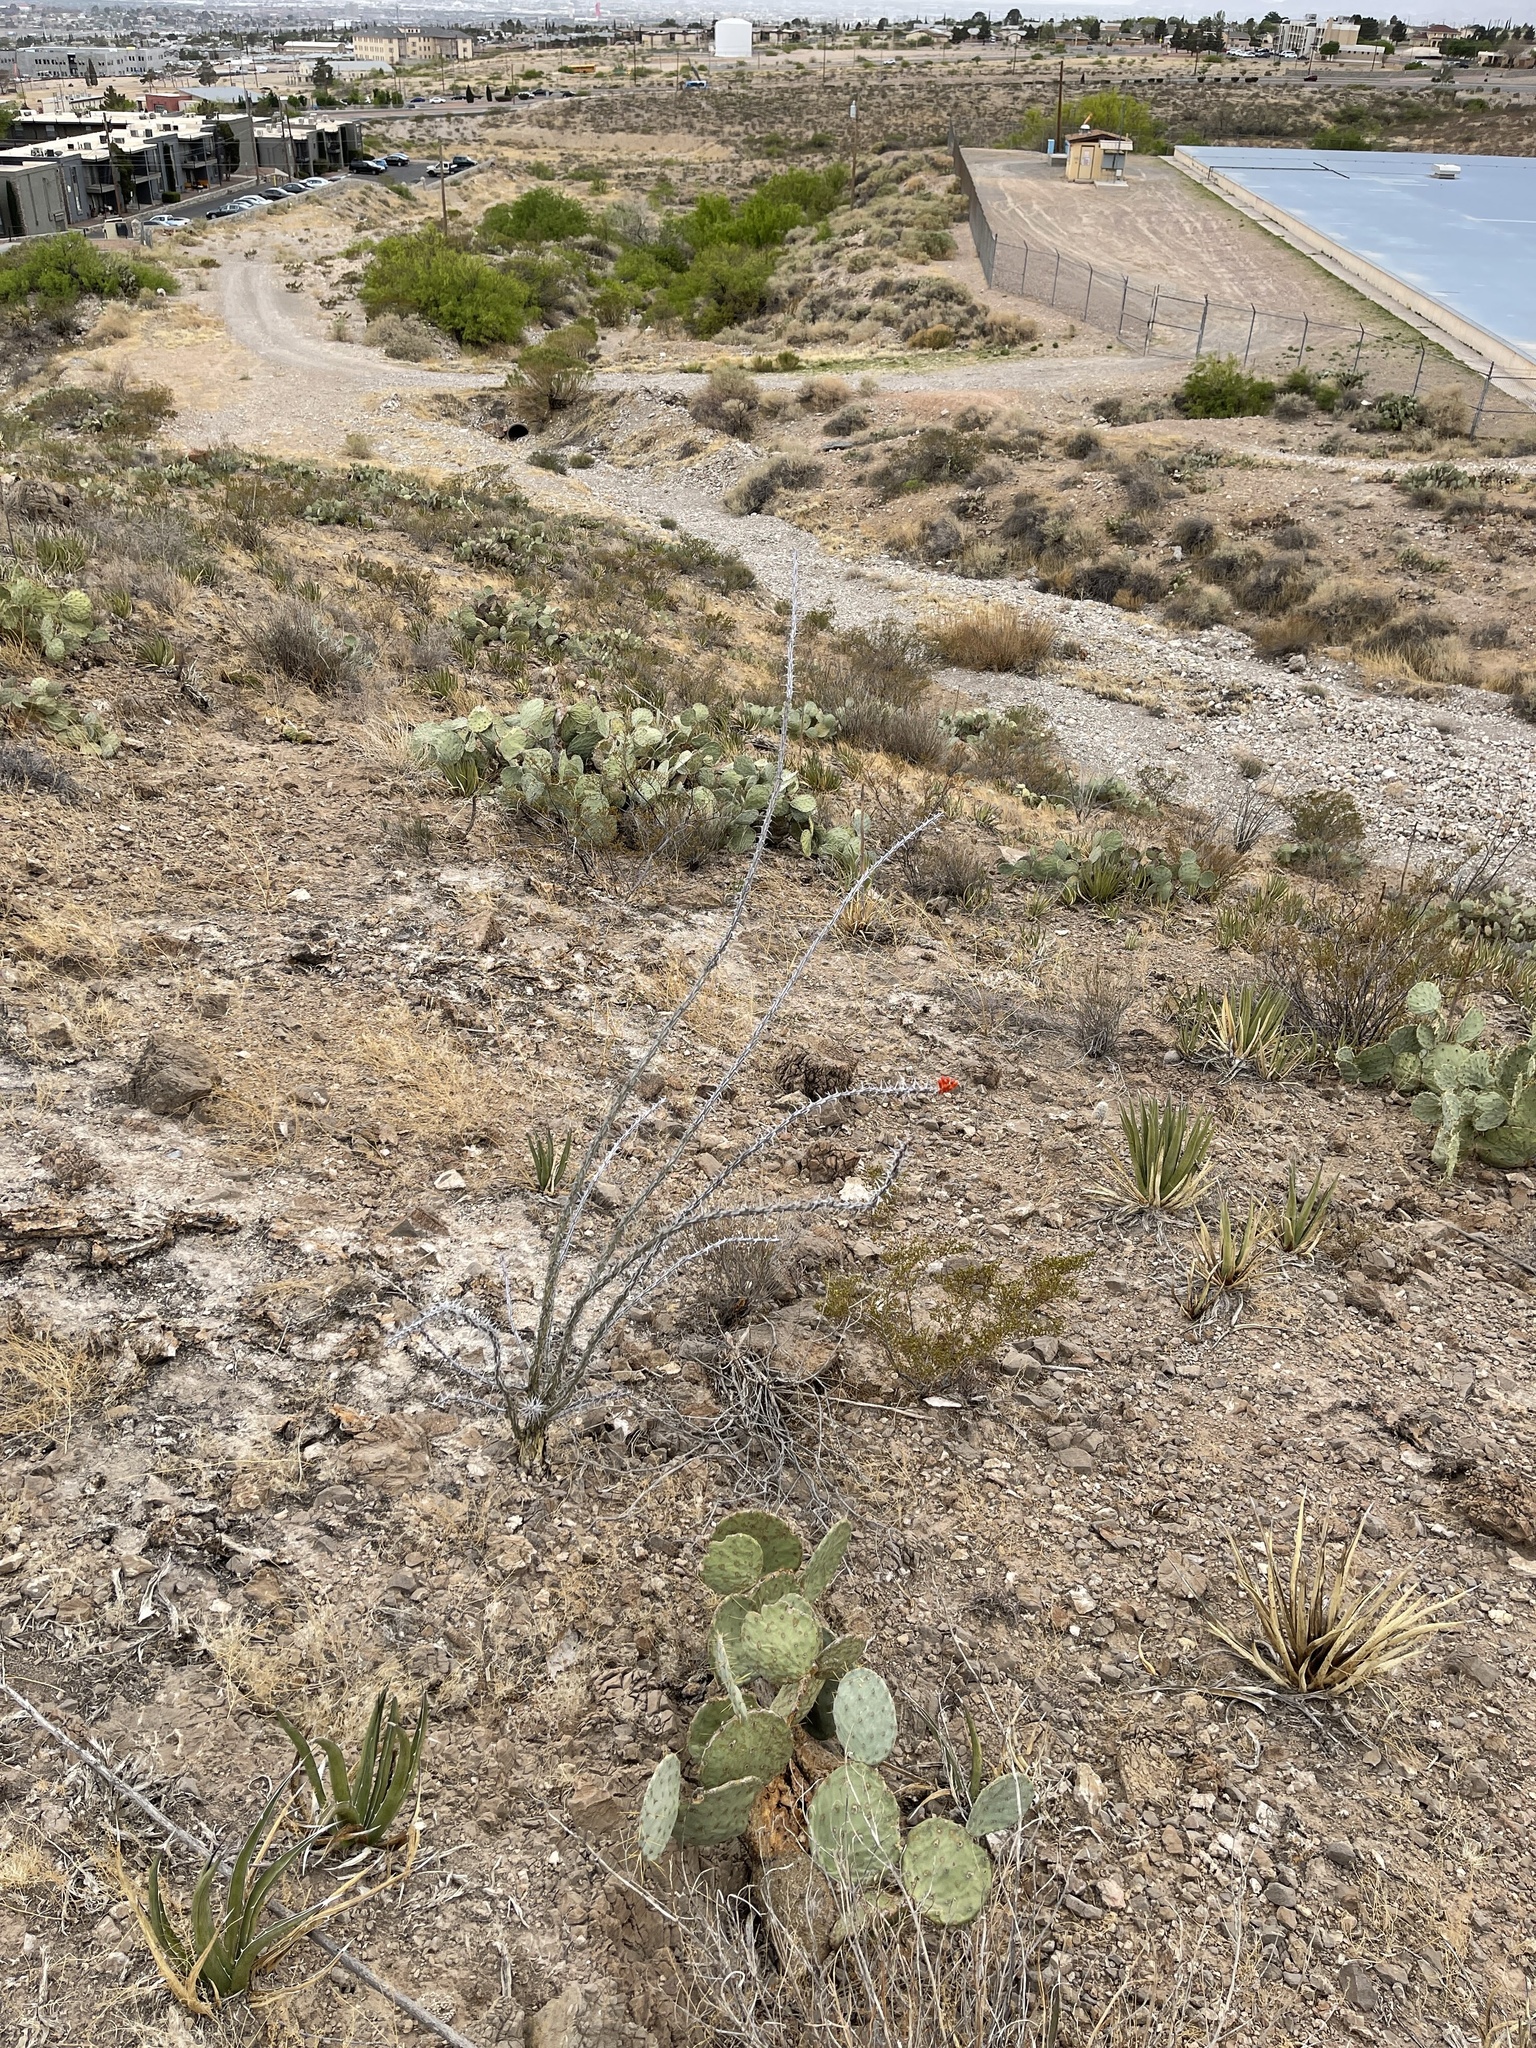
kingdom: Plantae
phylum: Tracheophyta
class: Magnoliopsida
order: Ericales
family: Fouquieriaceae
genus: Fouquieria
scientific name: Fouquieria splendens
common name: Vine-cactus
